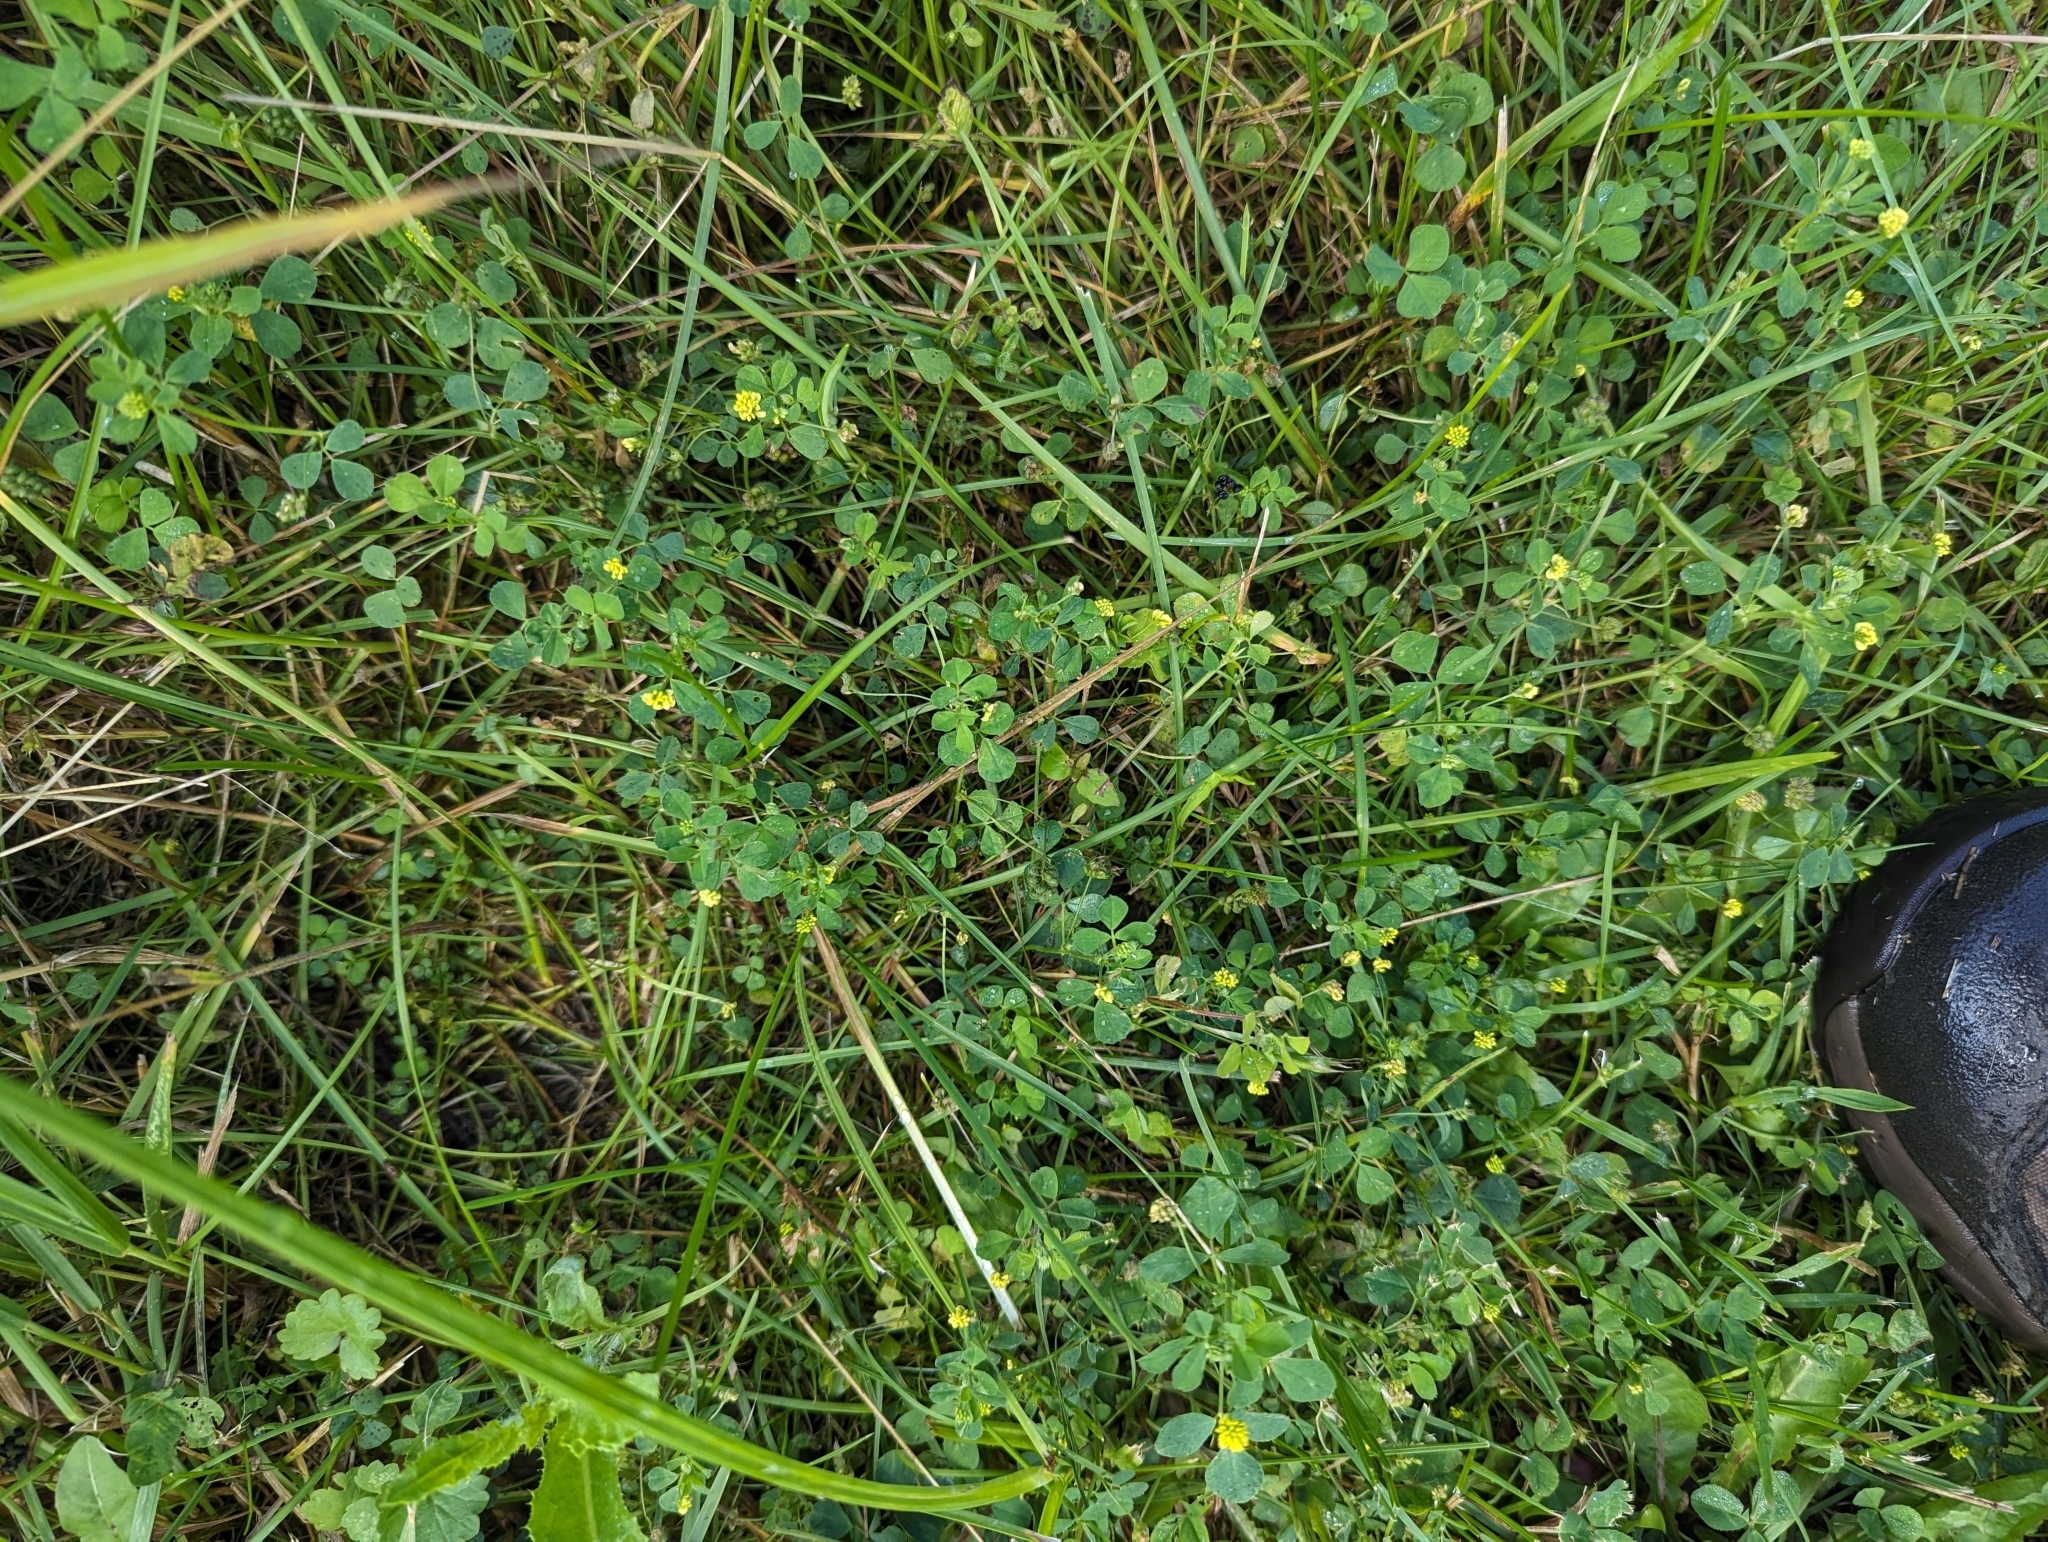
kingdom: Plantae
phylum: Tracheophyta
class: Magnoliopsida
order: Fabales
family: Fabaceae
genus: Medicago
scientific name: Medicago lupulina
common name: Black medick
